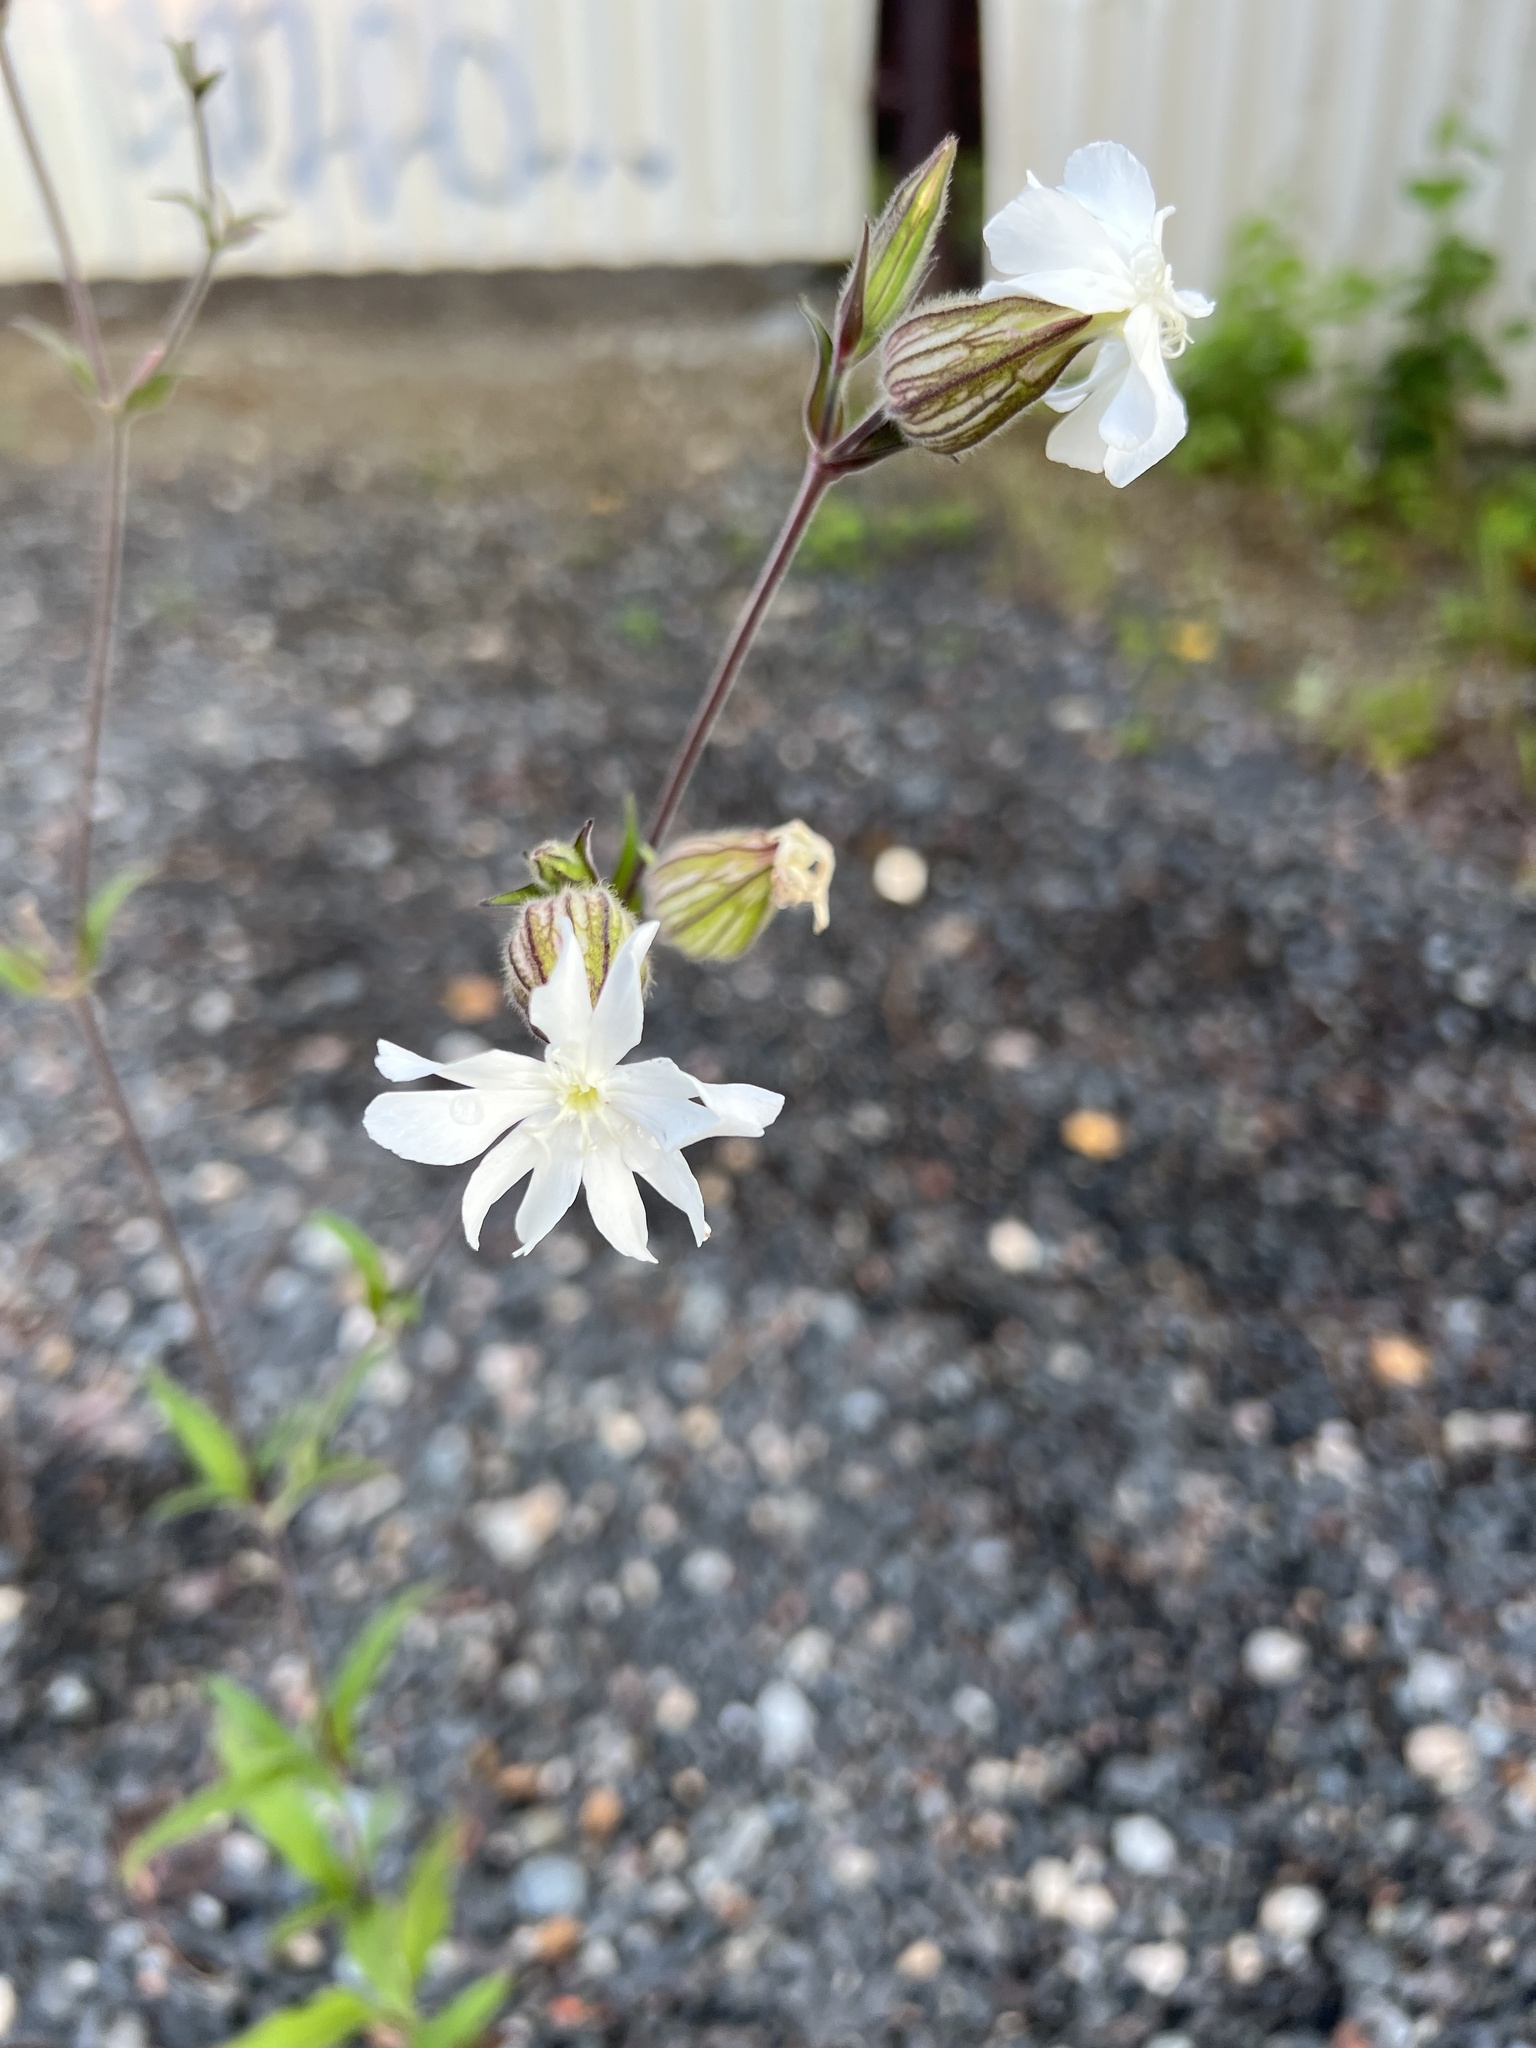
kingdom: Plantae
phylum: Tracheophyta
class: Magnoliopsida
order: Caryophyllales
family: Caryophyllaceae
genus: Silene
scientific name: Silene latifolia
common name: White campion
